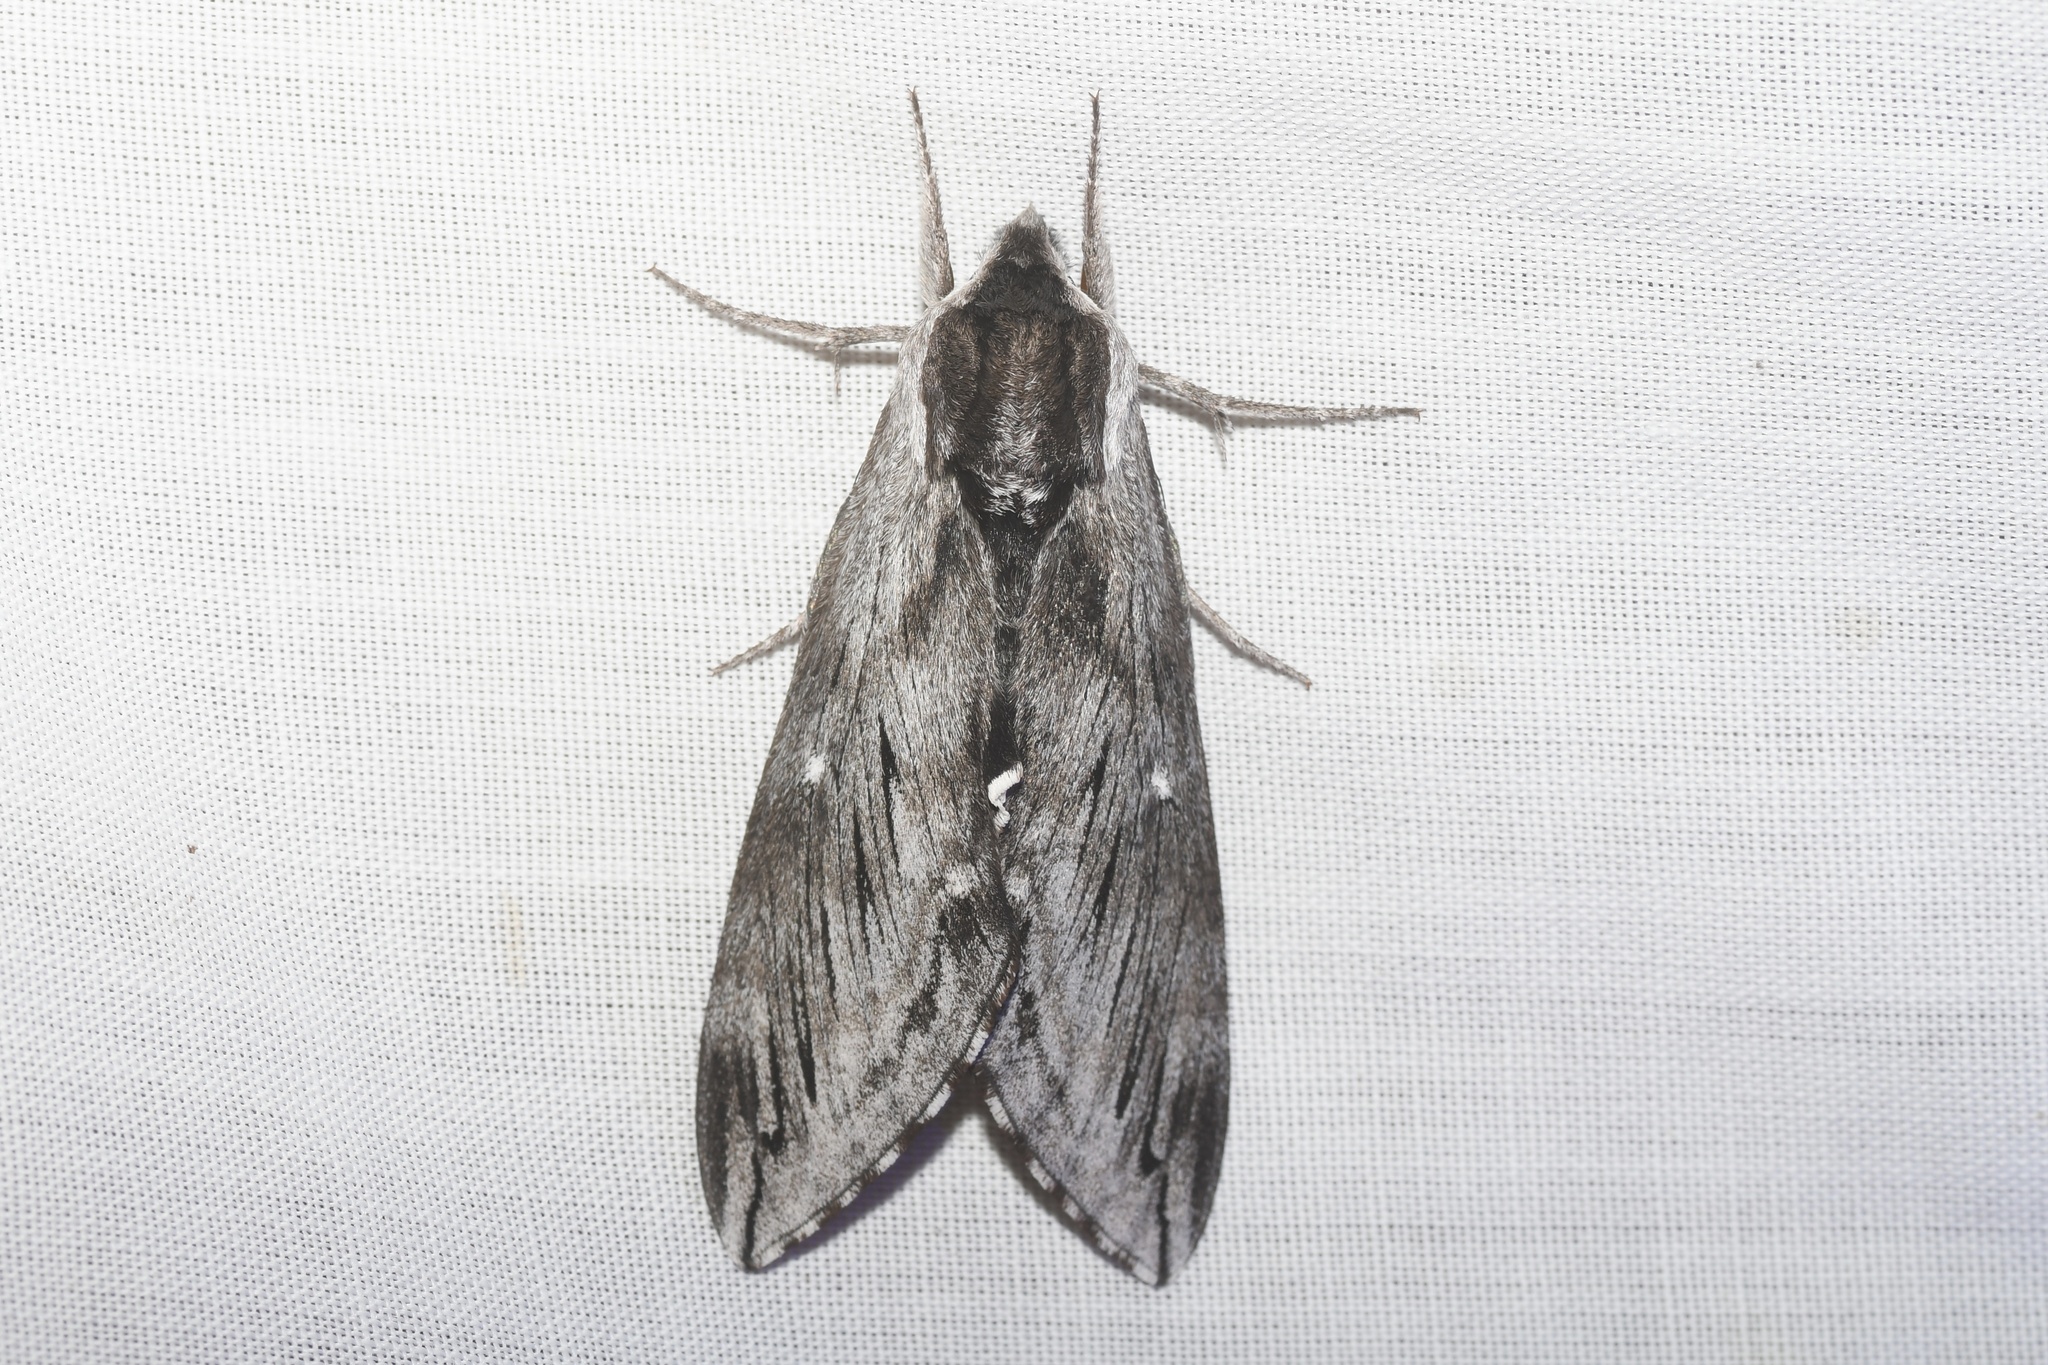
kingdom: Animalia
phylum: Arthropoda
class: Insecta
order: Lepidoptera
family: Sphingidae
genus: Sphinx
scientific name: Sphinx poecila
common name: Northern apple sphinx
